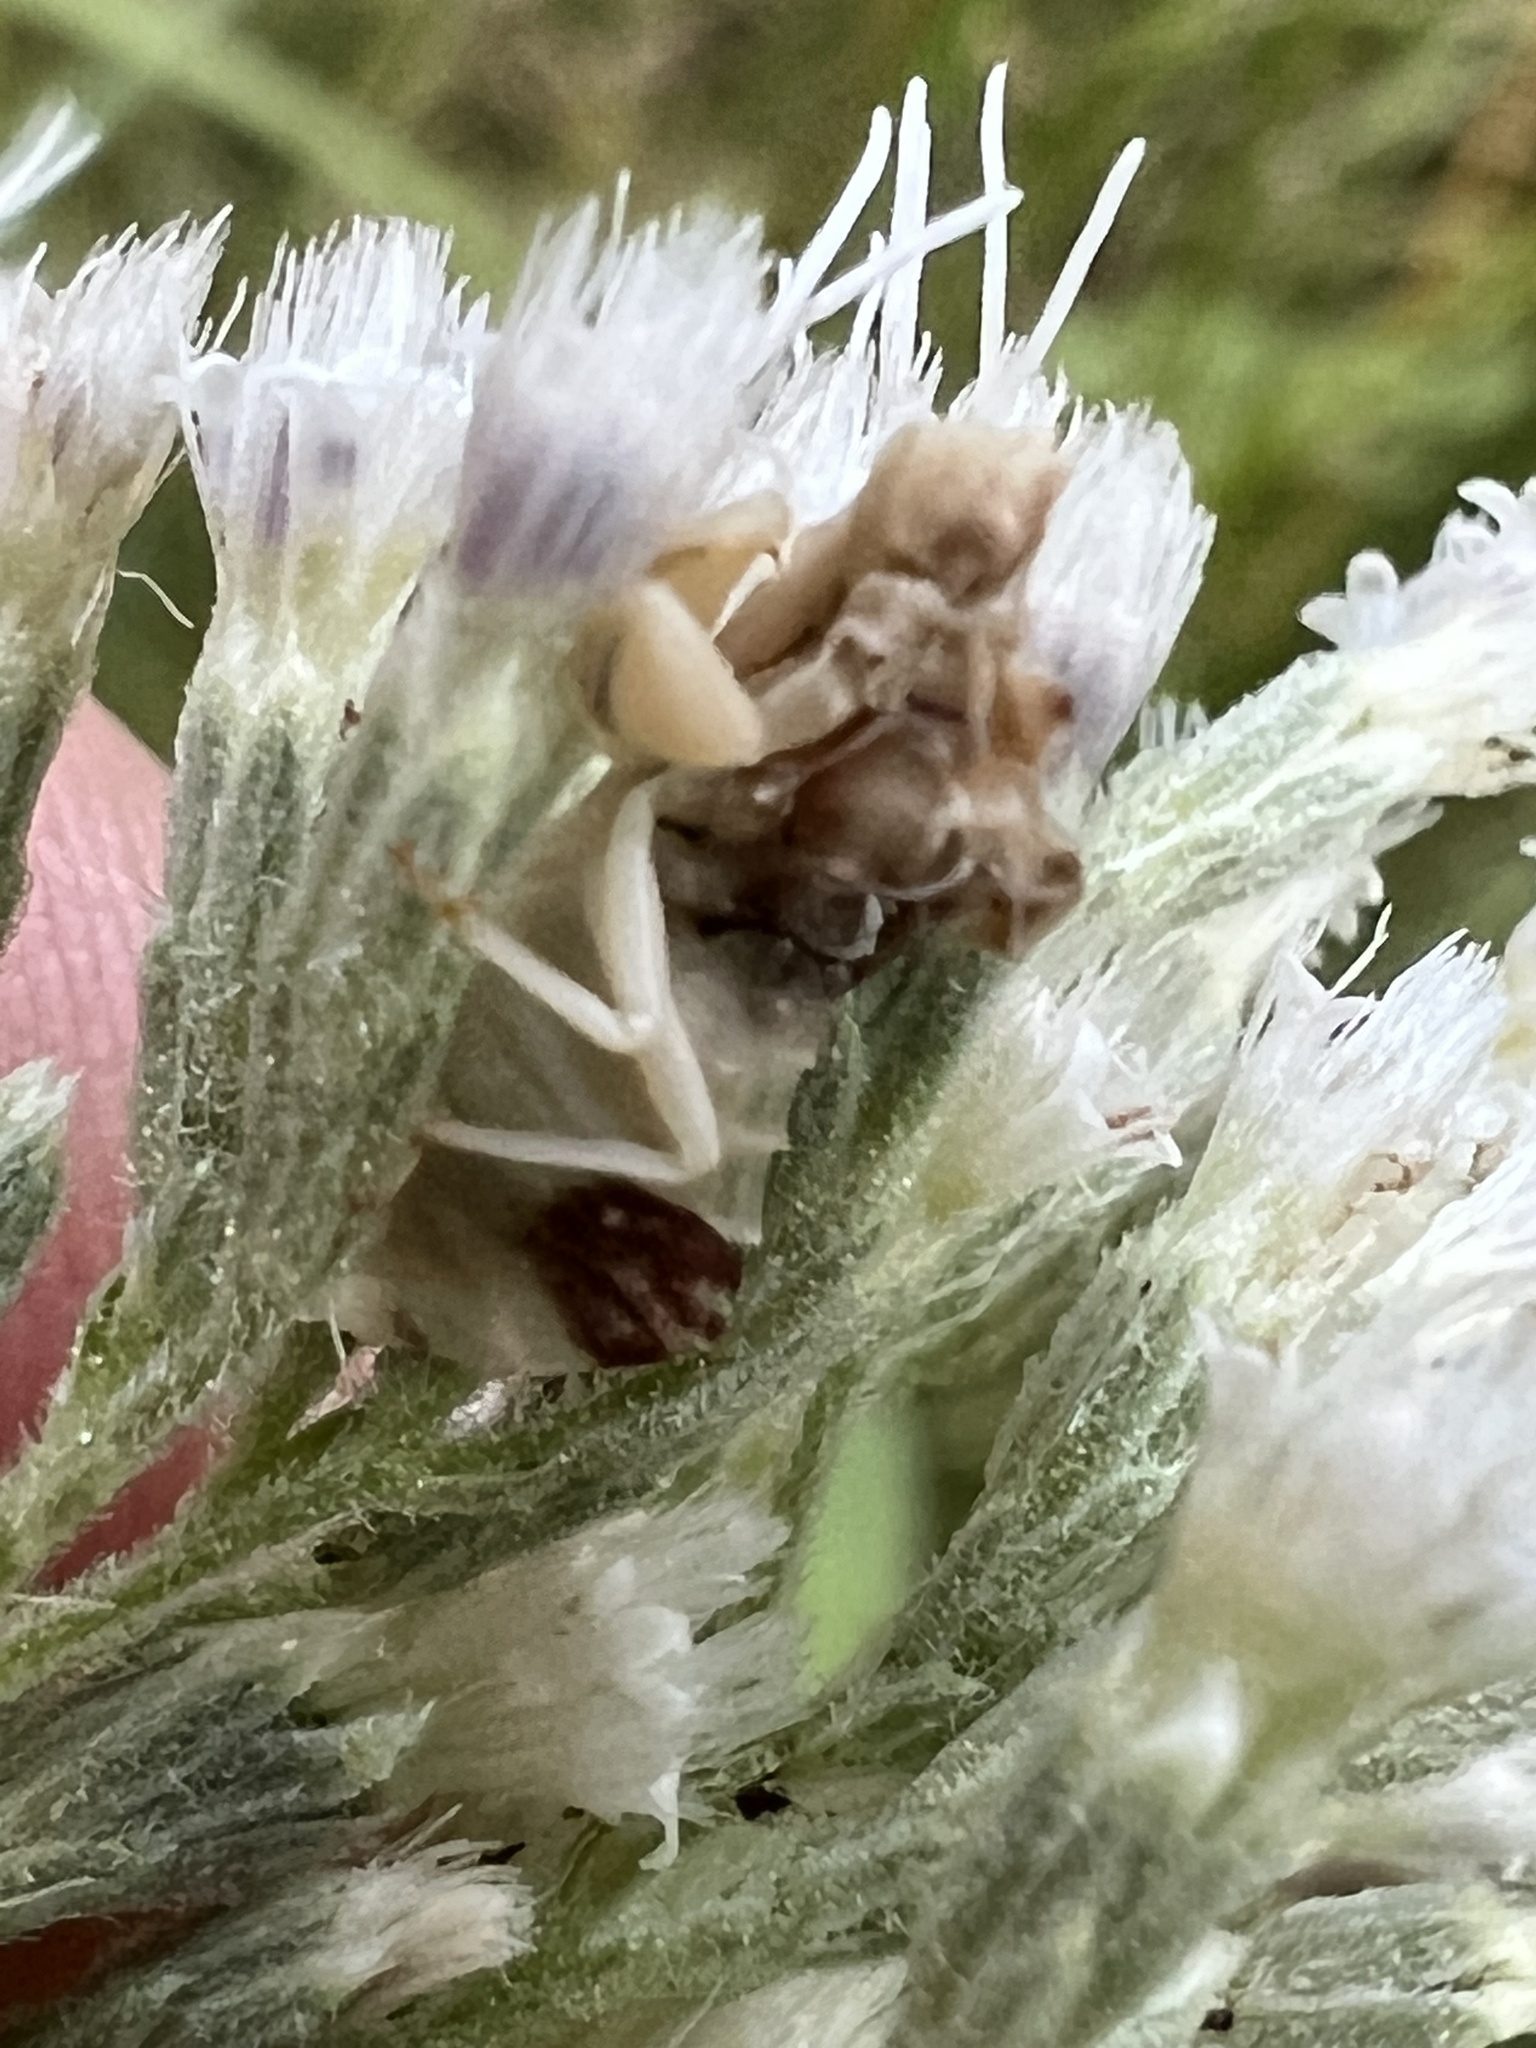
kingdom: Animalia
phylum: Arthropoda
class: Insecta
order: Hemiptera
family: Reduviidae
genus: Phymata
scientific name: Phymata fasciata
